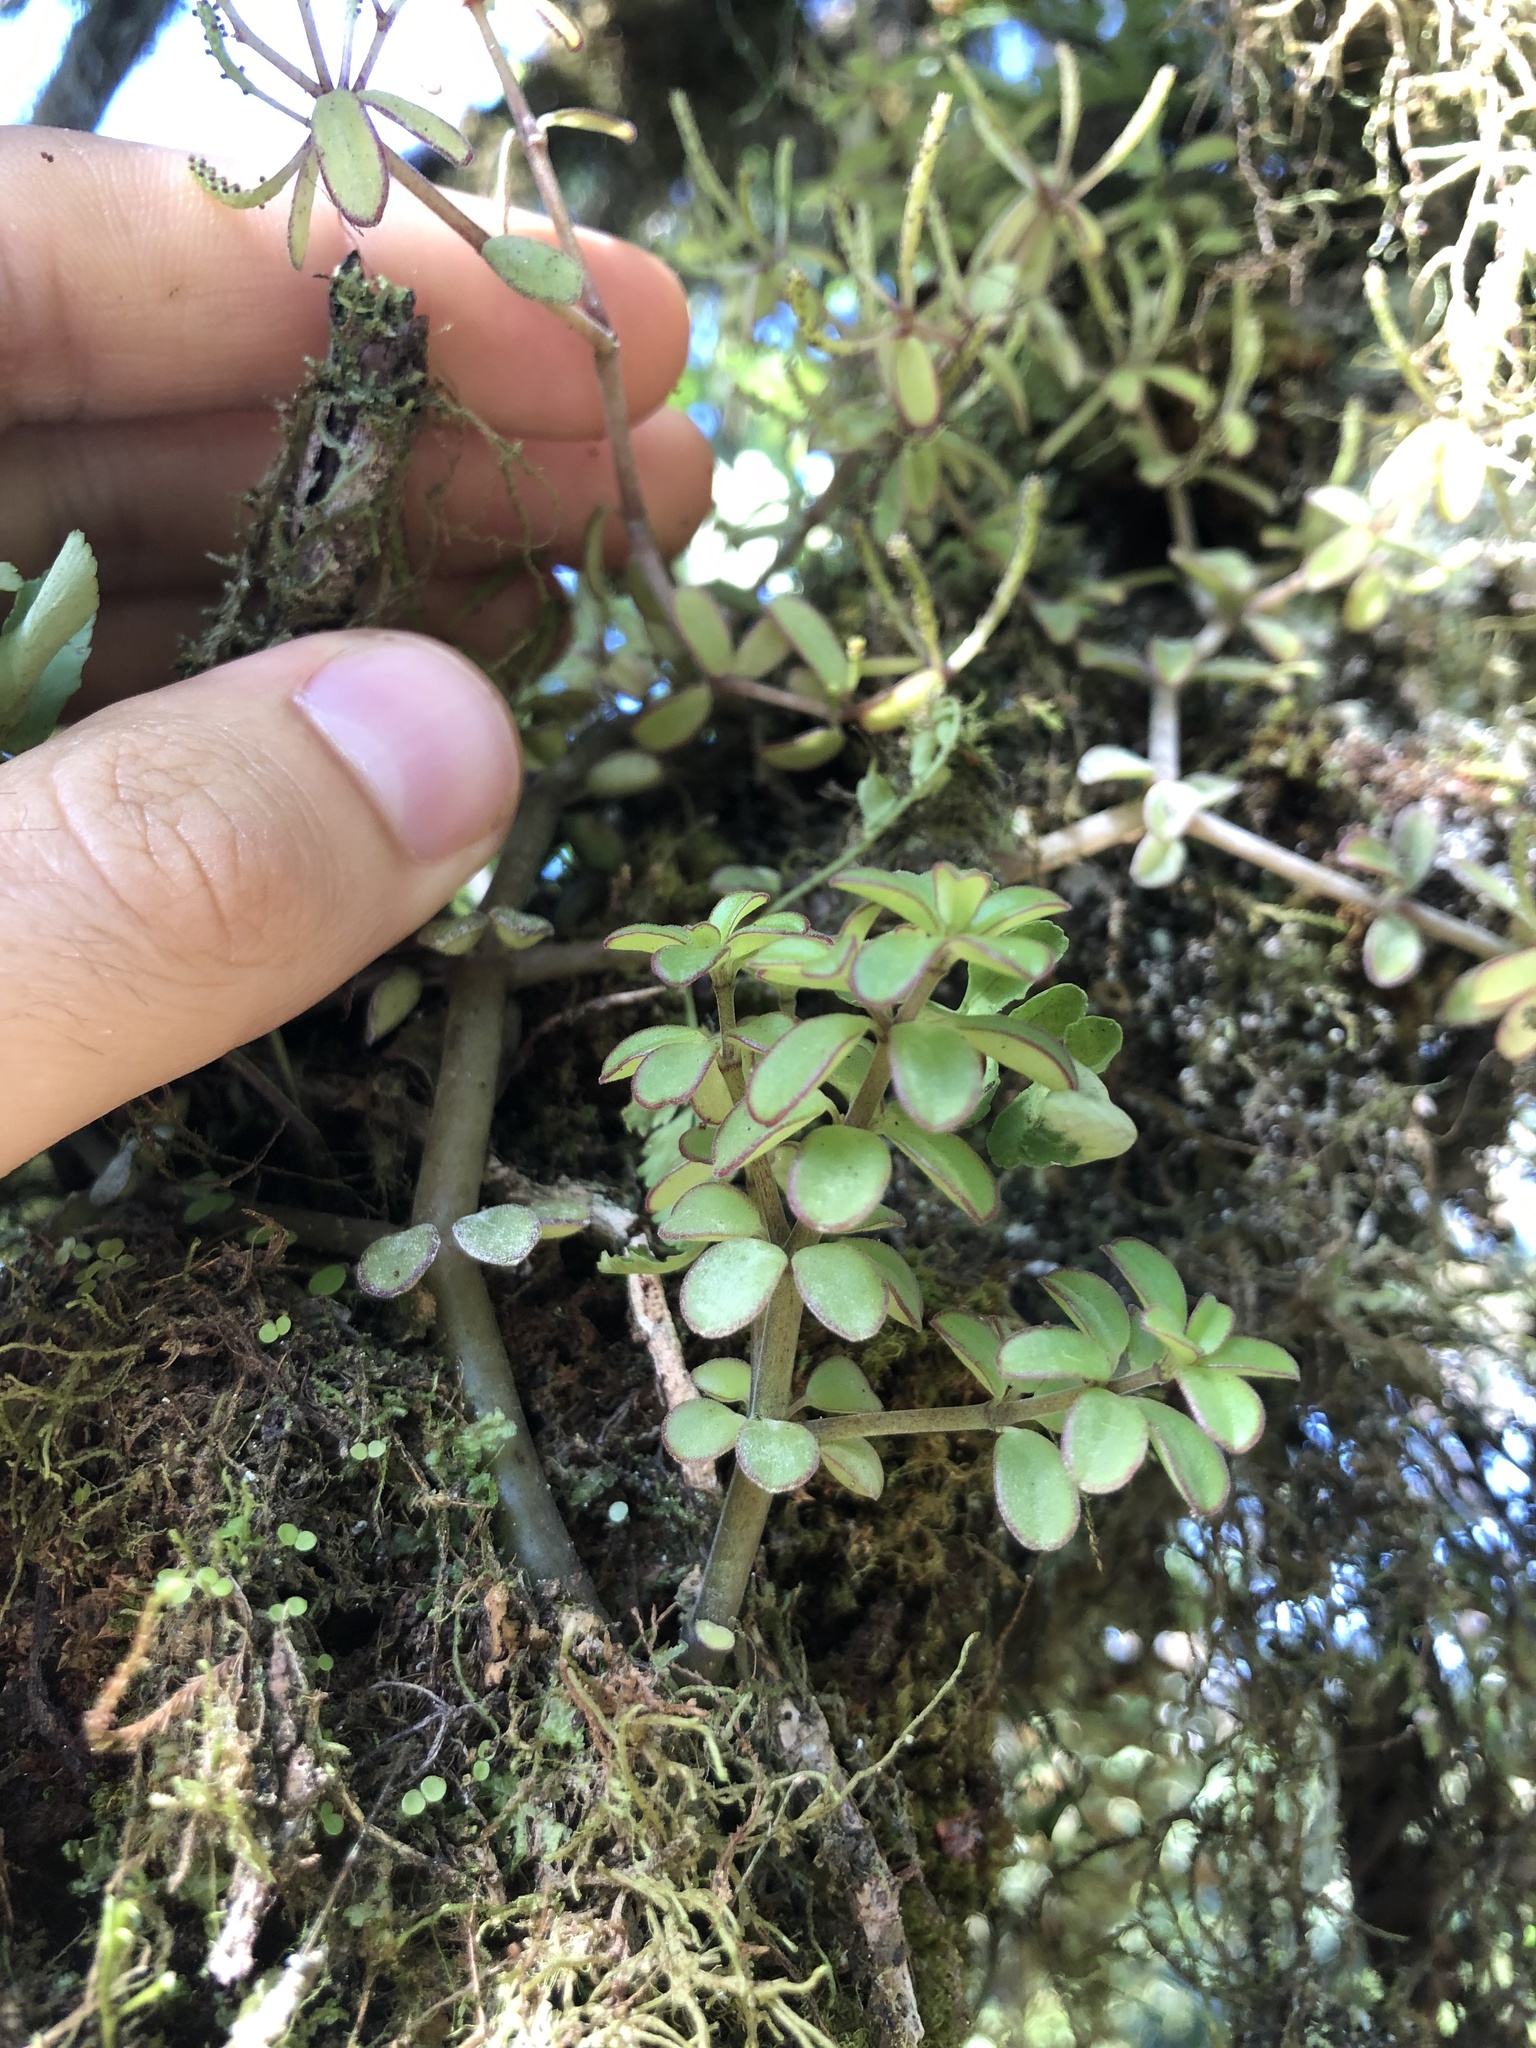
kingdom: Plantae
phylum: Tracheophyta
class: Magnoliopsida
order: Piperales
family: Piperaceae
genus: Peperomia
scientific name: Peperomia inaequalifolia
